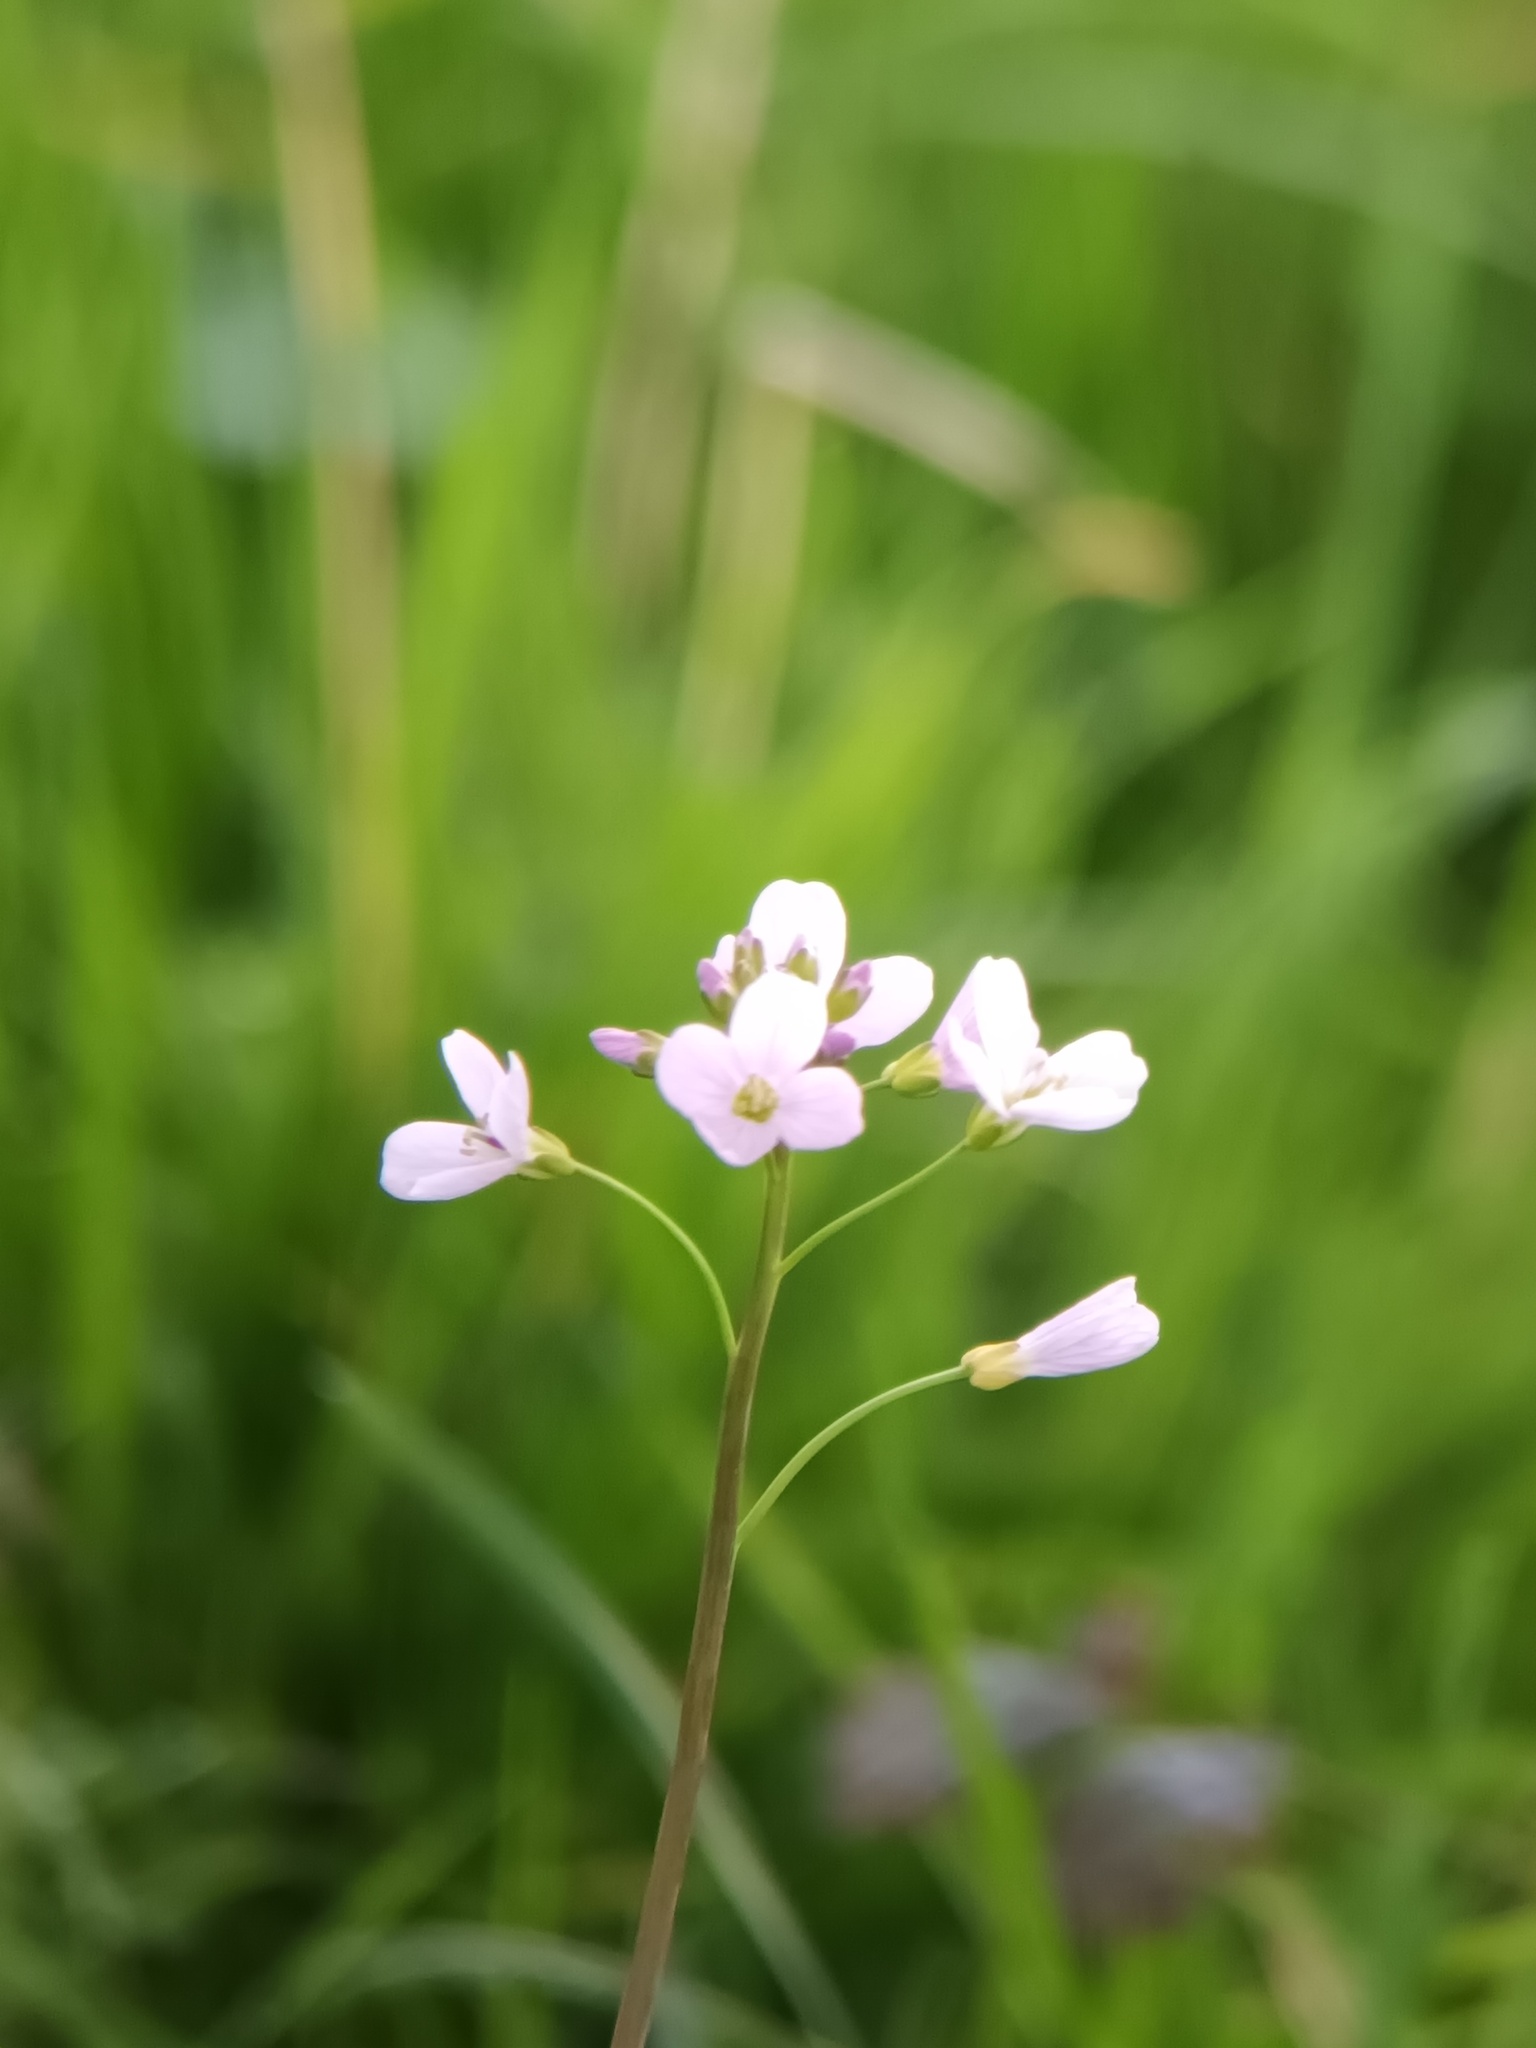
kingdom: Plantae
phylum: Tracheophyta
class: Magnoliopsida
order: Brassicales
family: Brassicaceae
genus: Cardamine
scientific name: Cardamine pratensis
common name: Cuckoo flower
